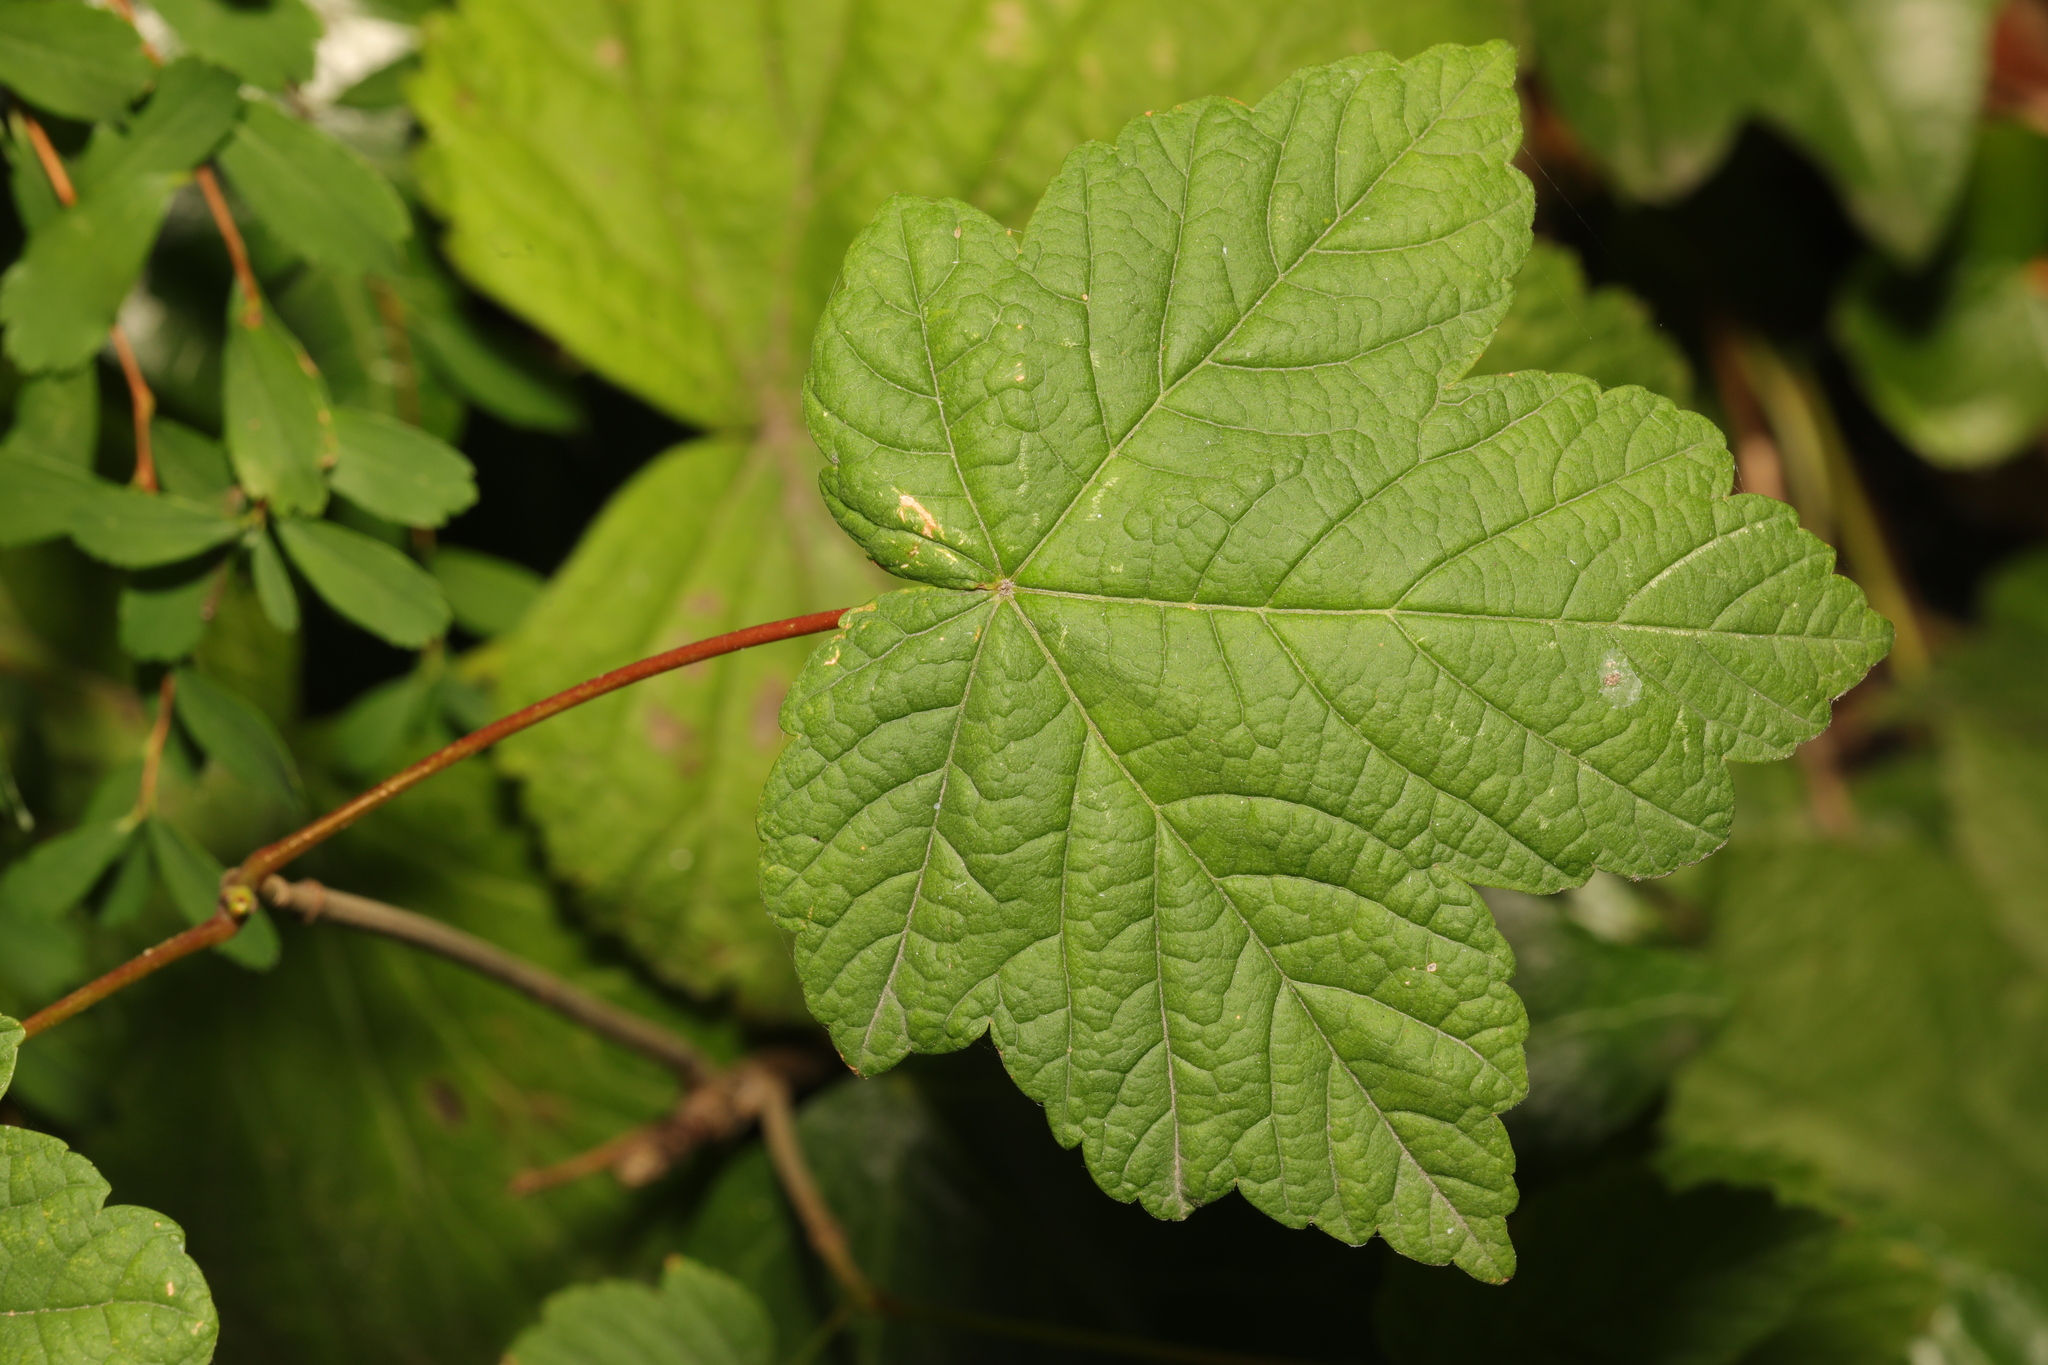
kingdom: Plantae
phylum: Tracheophyta
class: Magnoliopsida
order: Sapindales
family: Sapindaceae
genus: Acer
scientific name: Acer pseudoplatanus
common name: Sycamore
